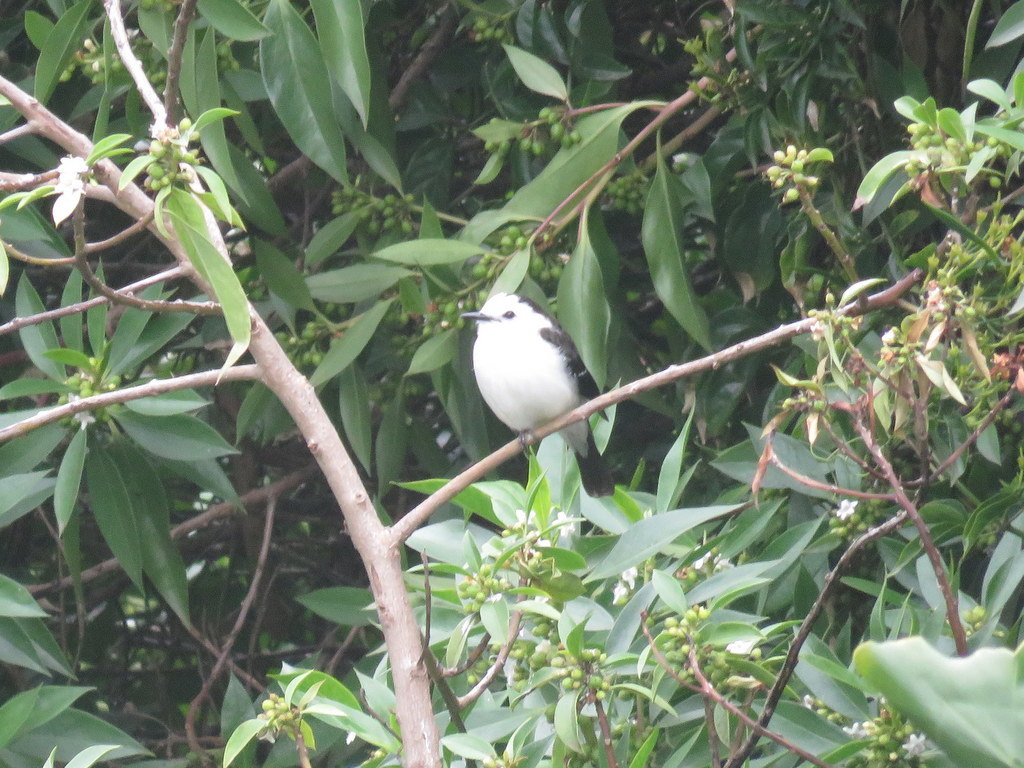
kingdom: Animalia
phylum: Chordata
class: Aves
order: Passeriformes
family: Tyrannidae
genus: Fluvicola
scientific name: Fluvicola pica
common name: Pied water-tyrant
